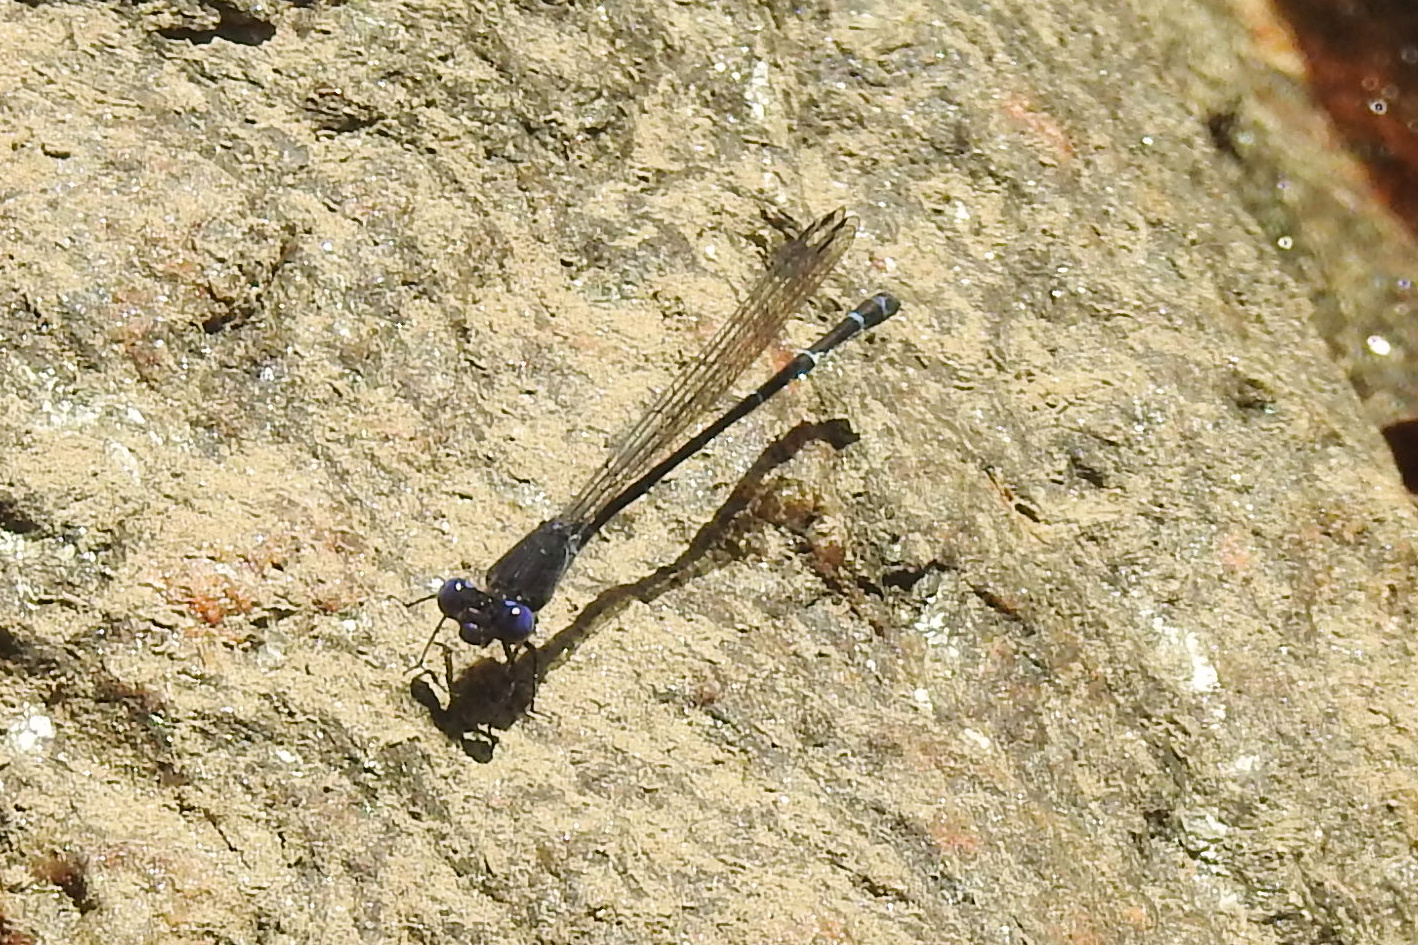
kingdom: Animalia
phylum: Arthropoda
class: Insecta
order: Odonata
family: Coenagrionidae
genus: Argia
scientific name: Argia translata
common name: Dusky dancer
